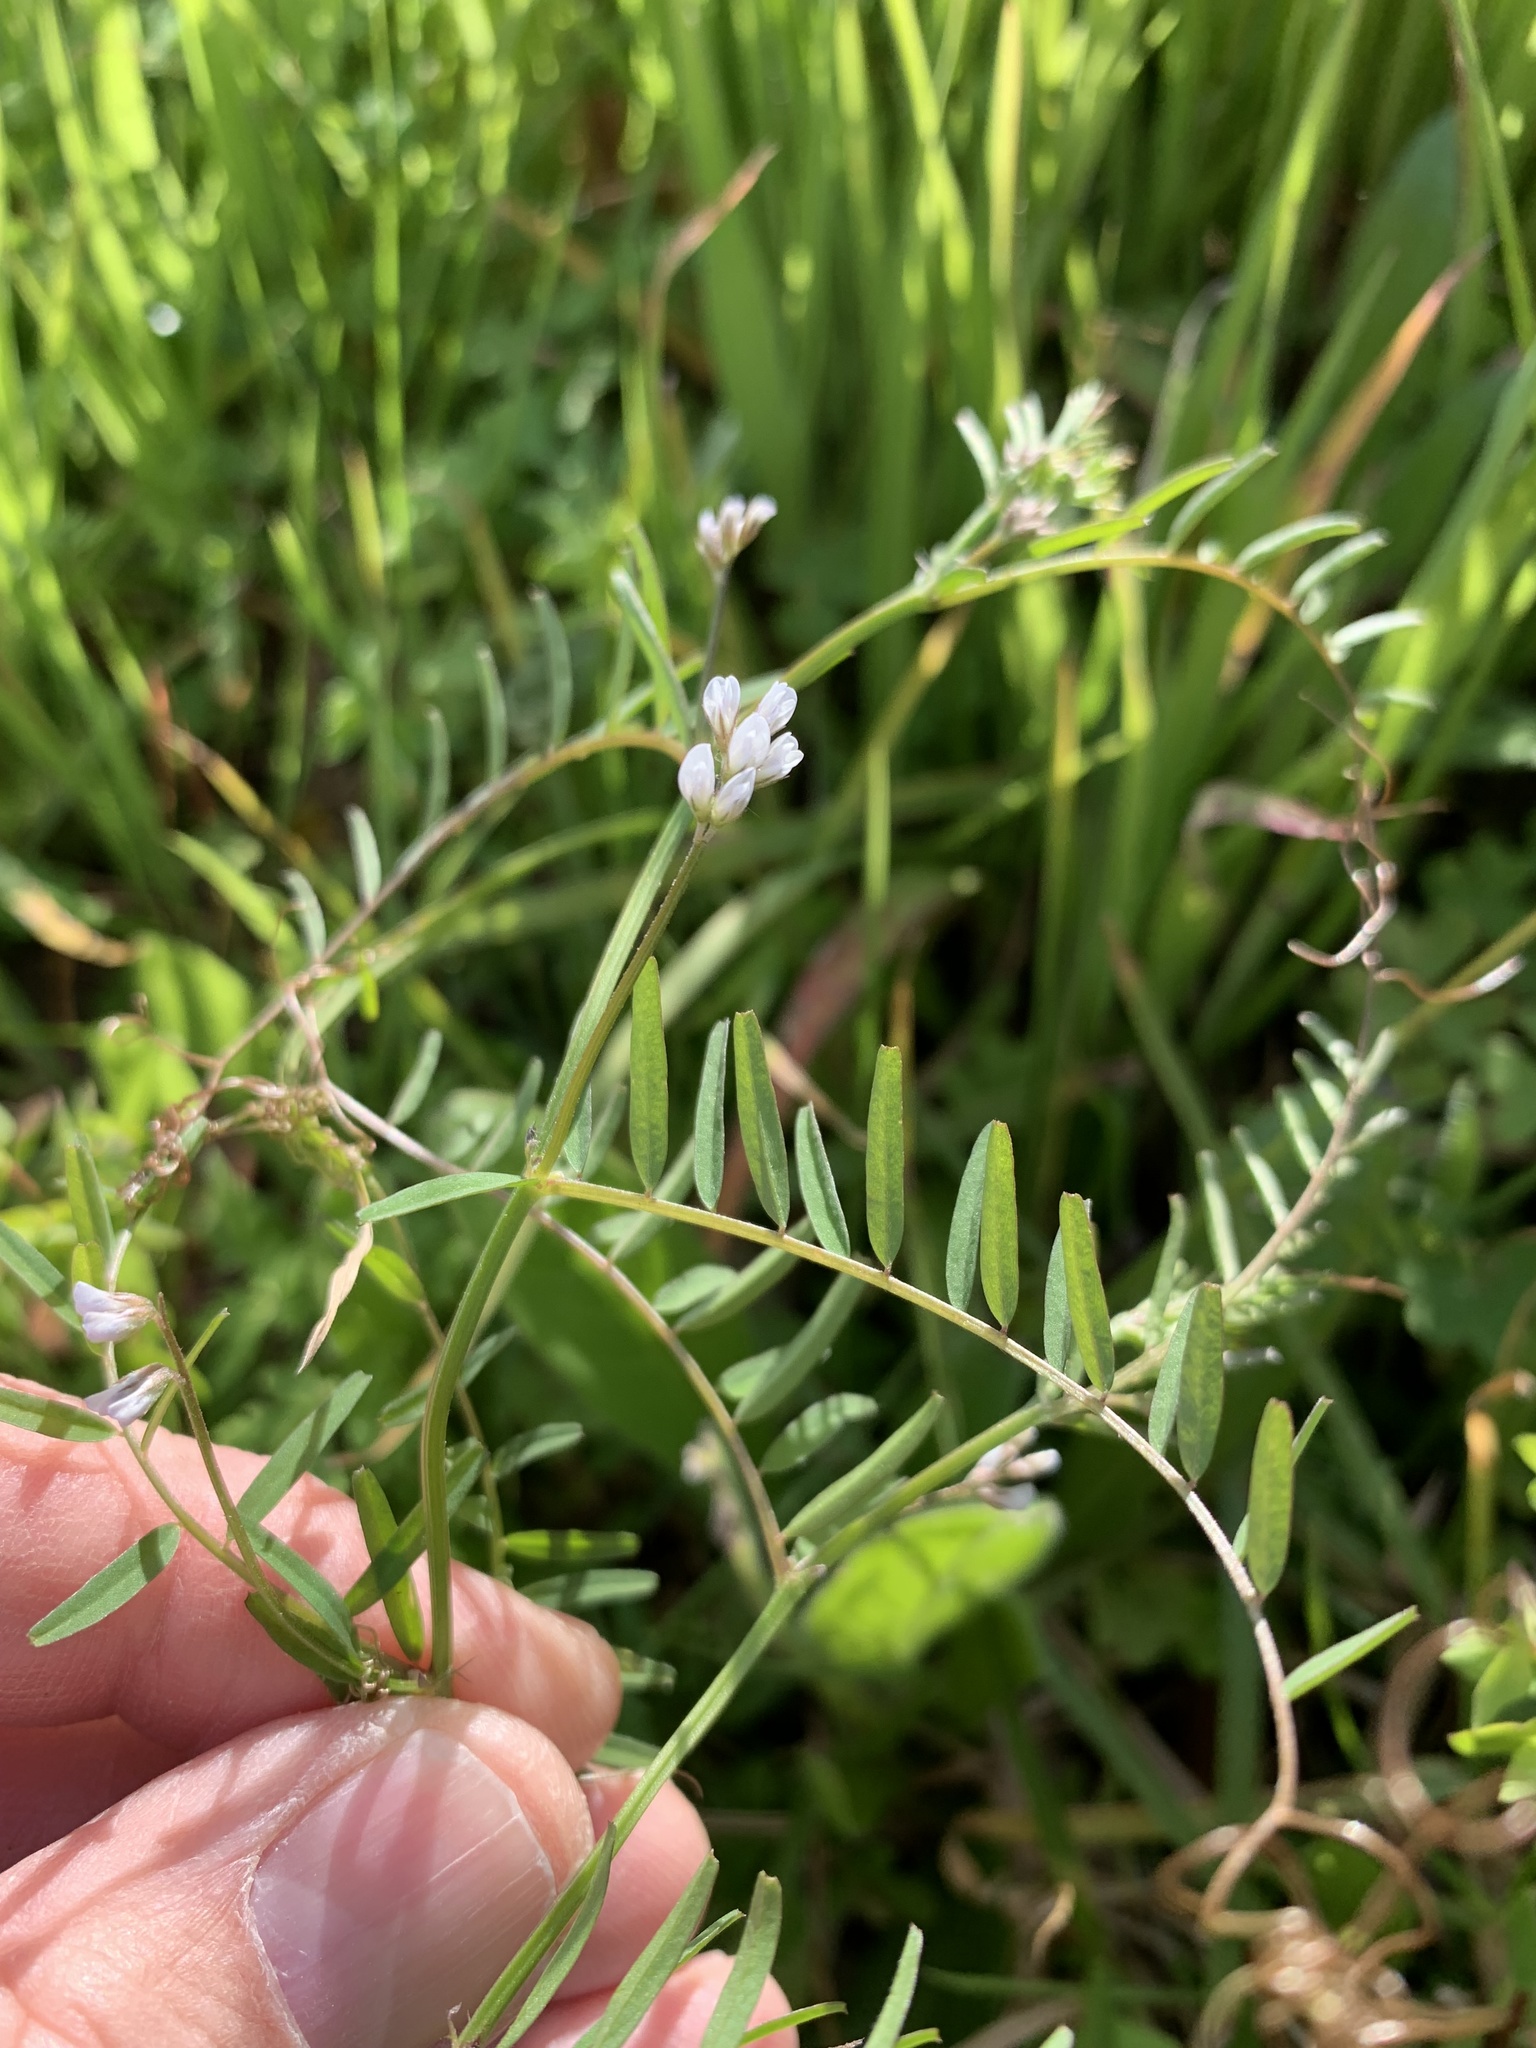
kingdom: Plantae
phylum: Tracheophyta
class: Magnoliopsida
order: Fabales
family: Fabaceae
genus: Vicia
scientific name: Vicia hirsuta
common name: Tiny vetch
